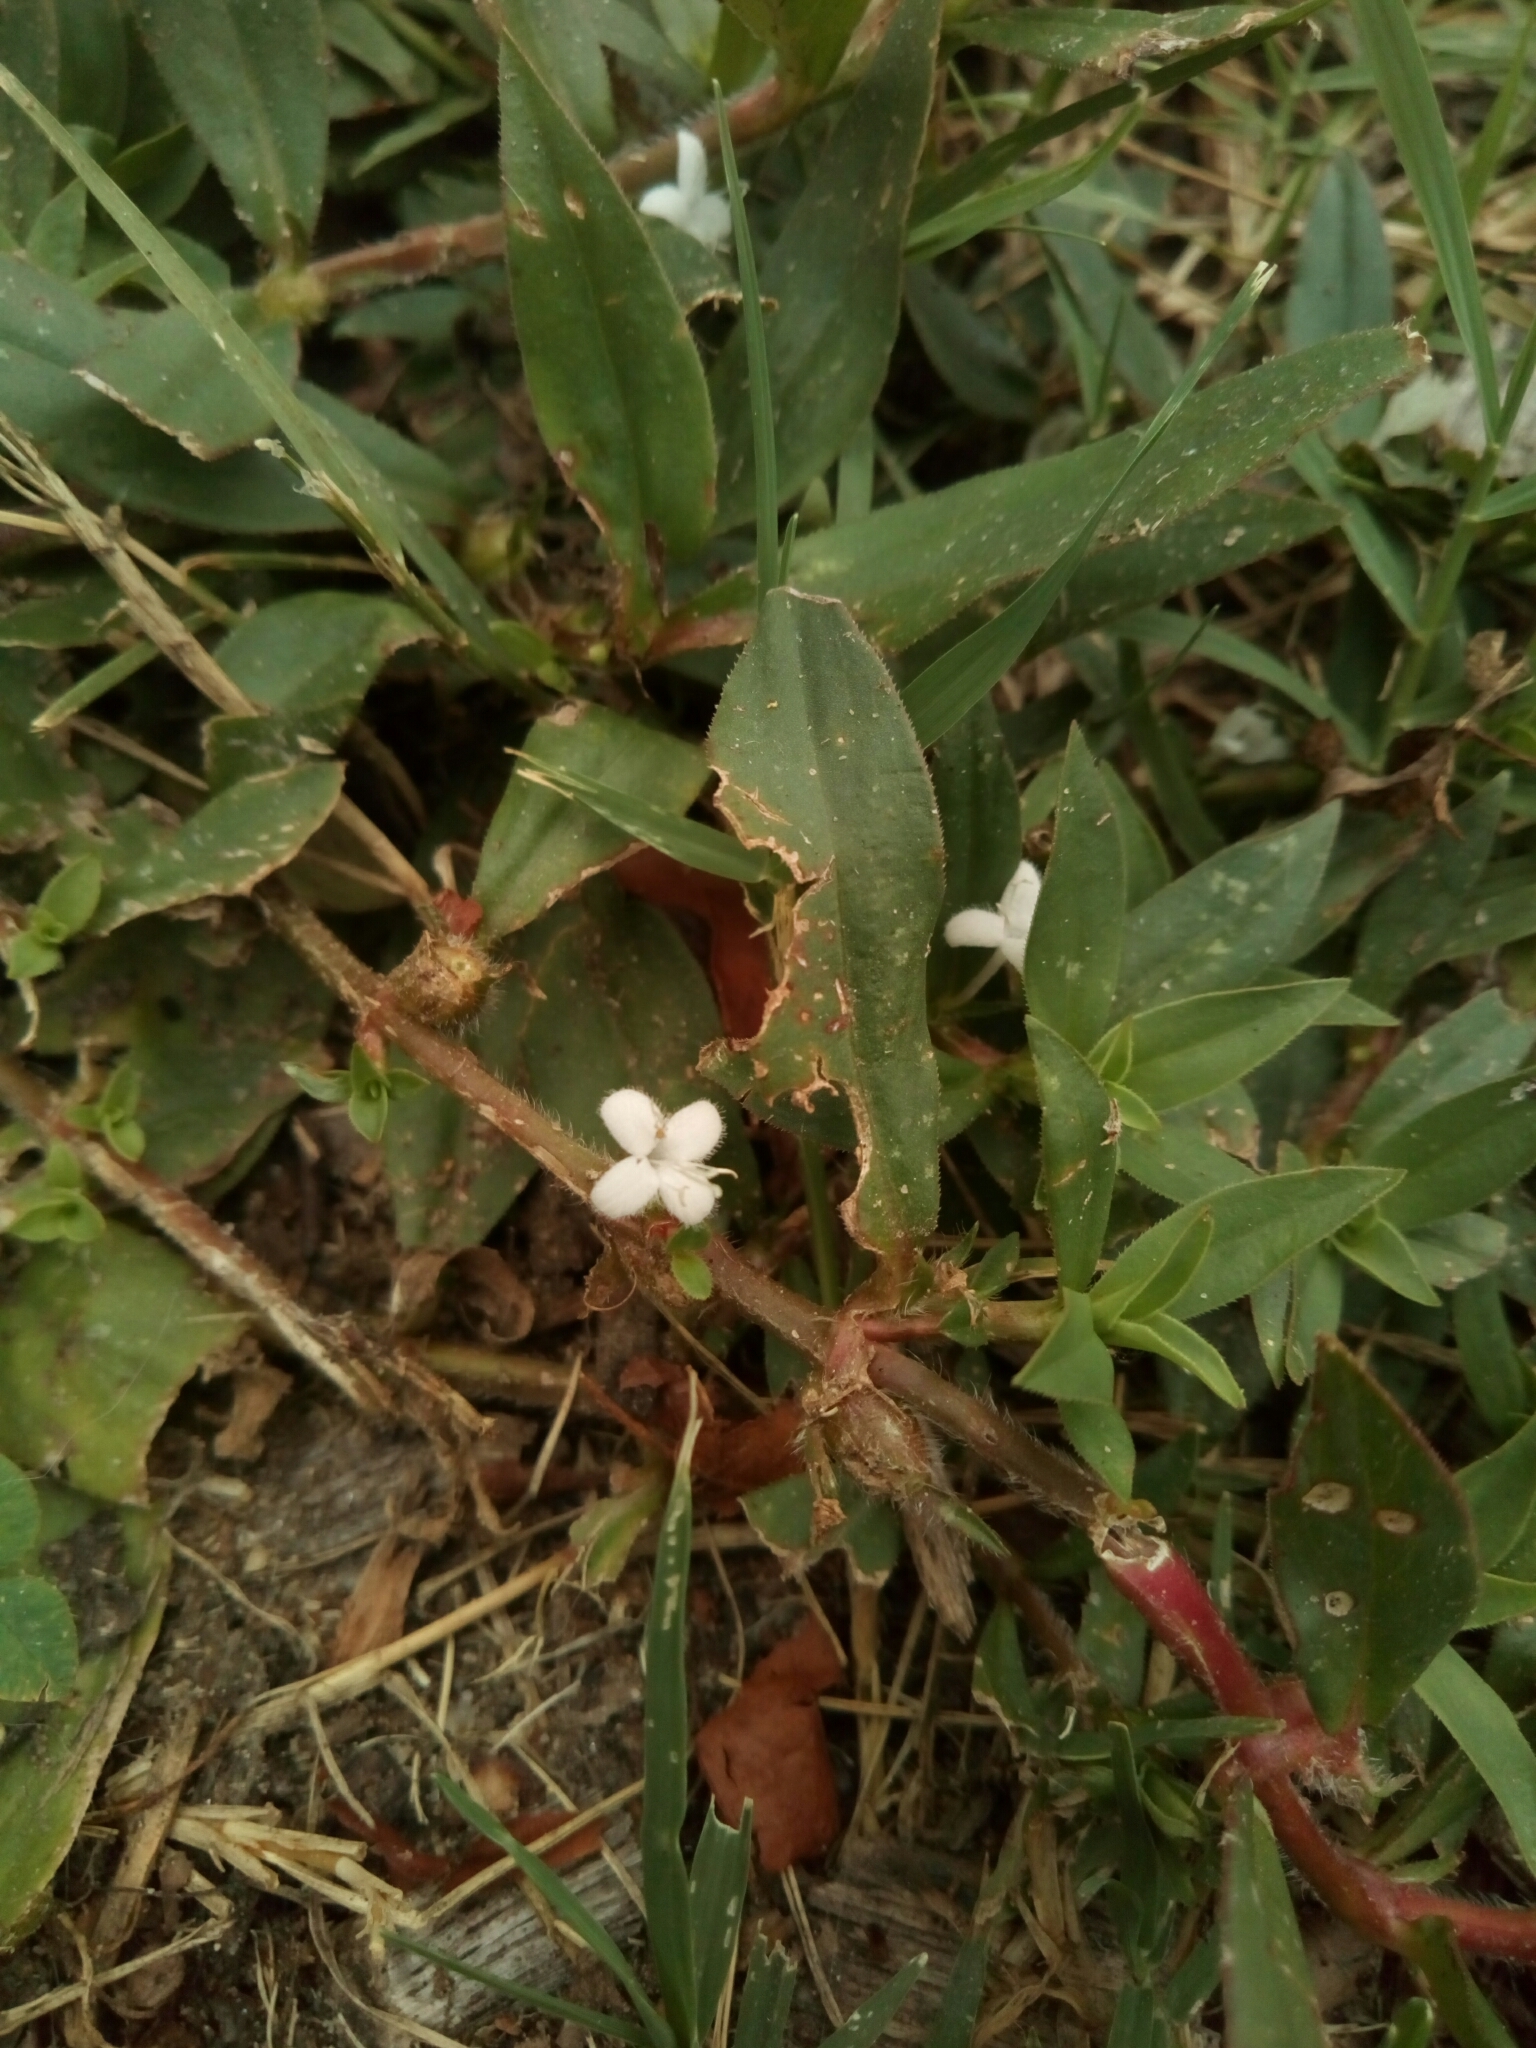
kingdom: Plantae
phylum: Tracheophyta
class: Magnoliopsida
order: Gentianales
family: Rubiaceae
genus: Diodia
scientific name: Diodia virginiana
